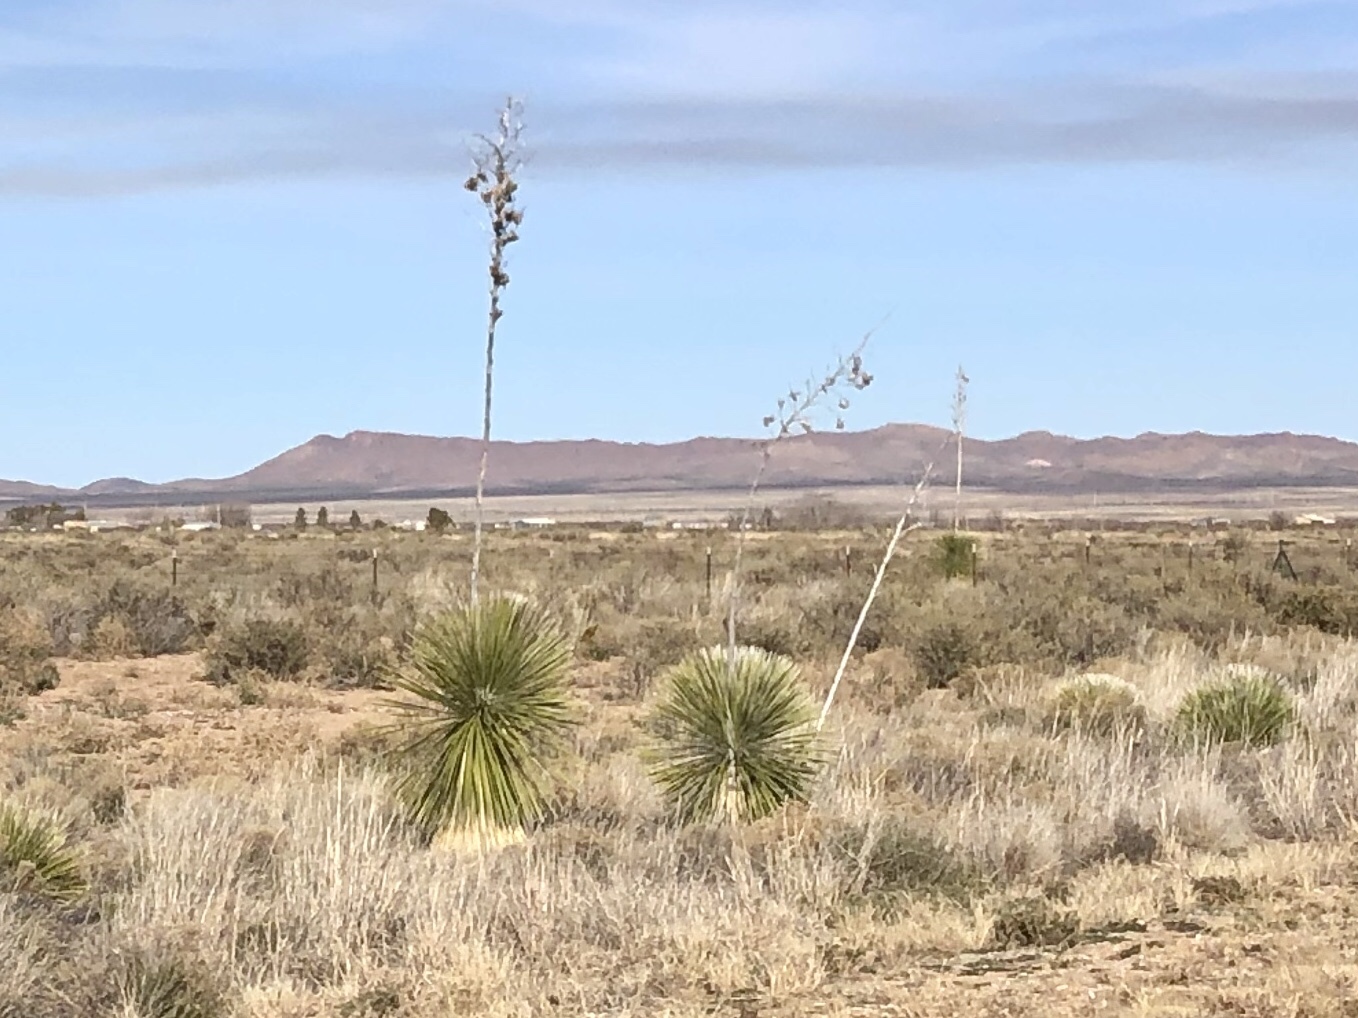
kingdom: Plantae
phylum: Tracheophyta
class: Liliopsida
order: Asparagales
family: Asparagaceae
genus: Yucca
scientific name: Yucca elata
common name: Palmella
